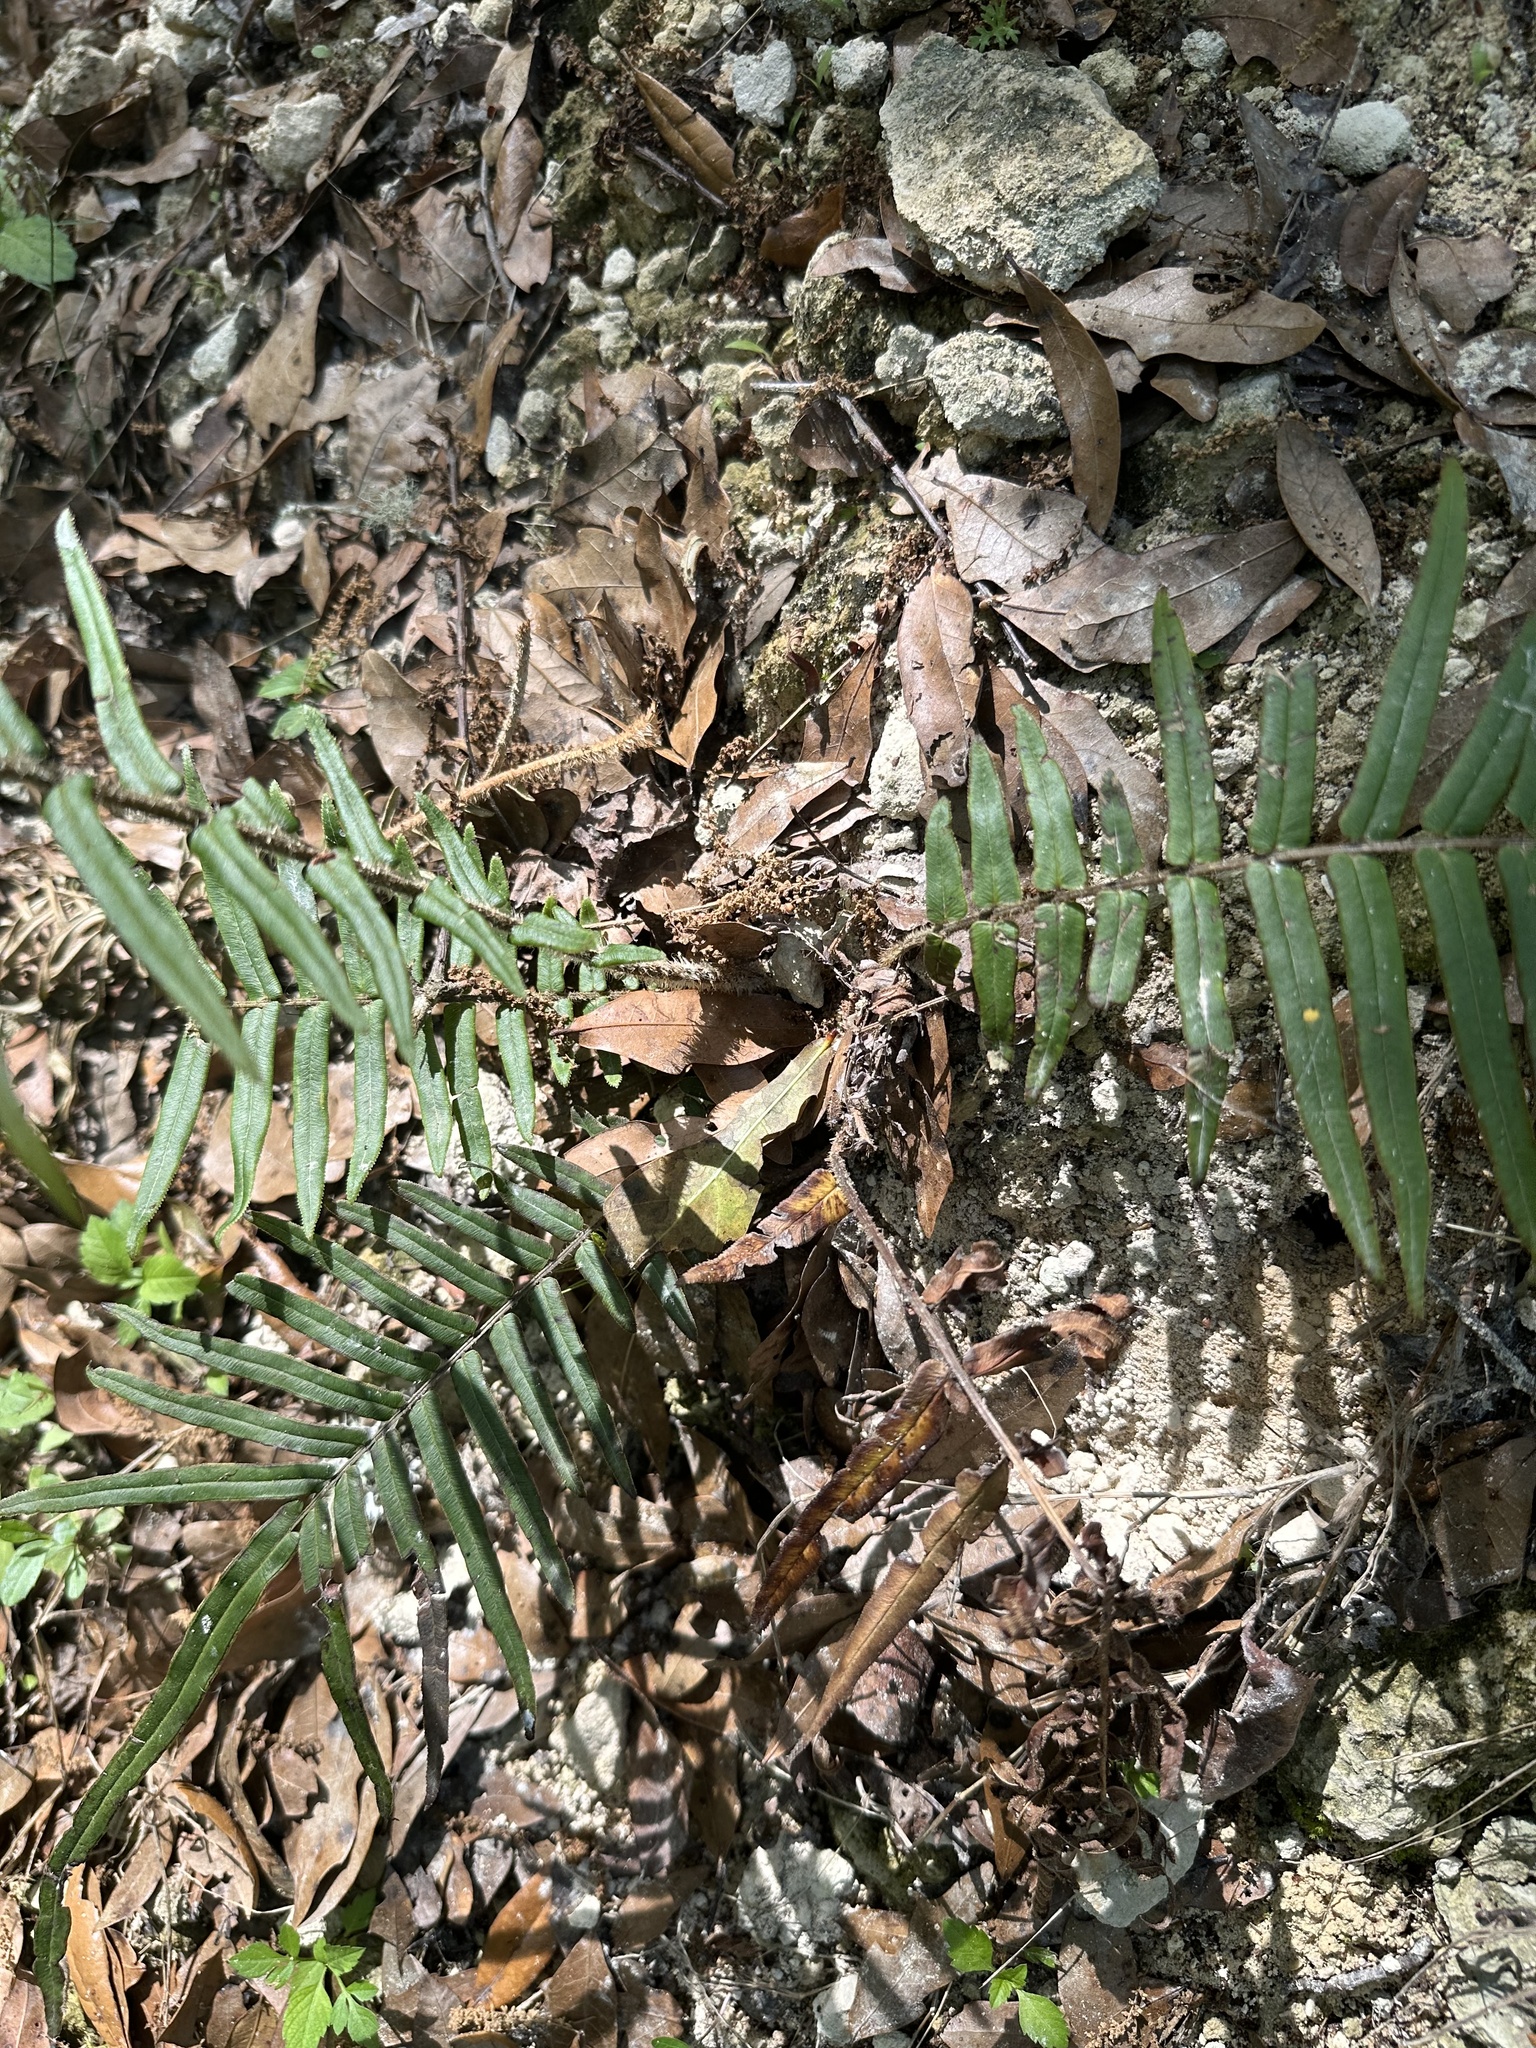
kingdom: Plantae
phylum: Tracheophyta
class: Polypodiopsida
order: Polypodiales
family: Pteridaceae
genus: Pteris
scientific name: Pteris vittata
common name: Ladder brake
